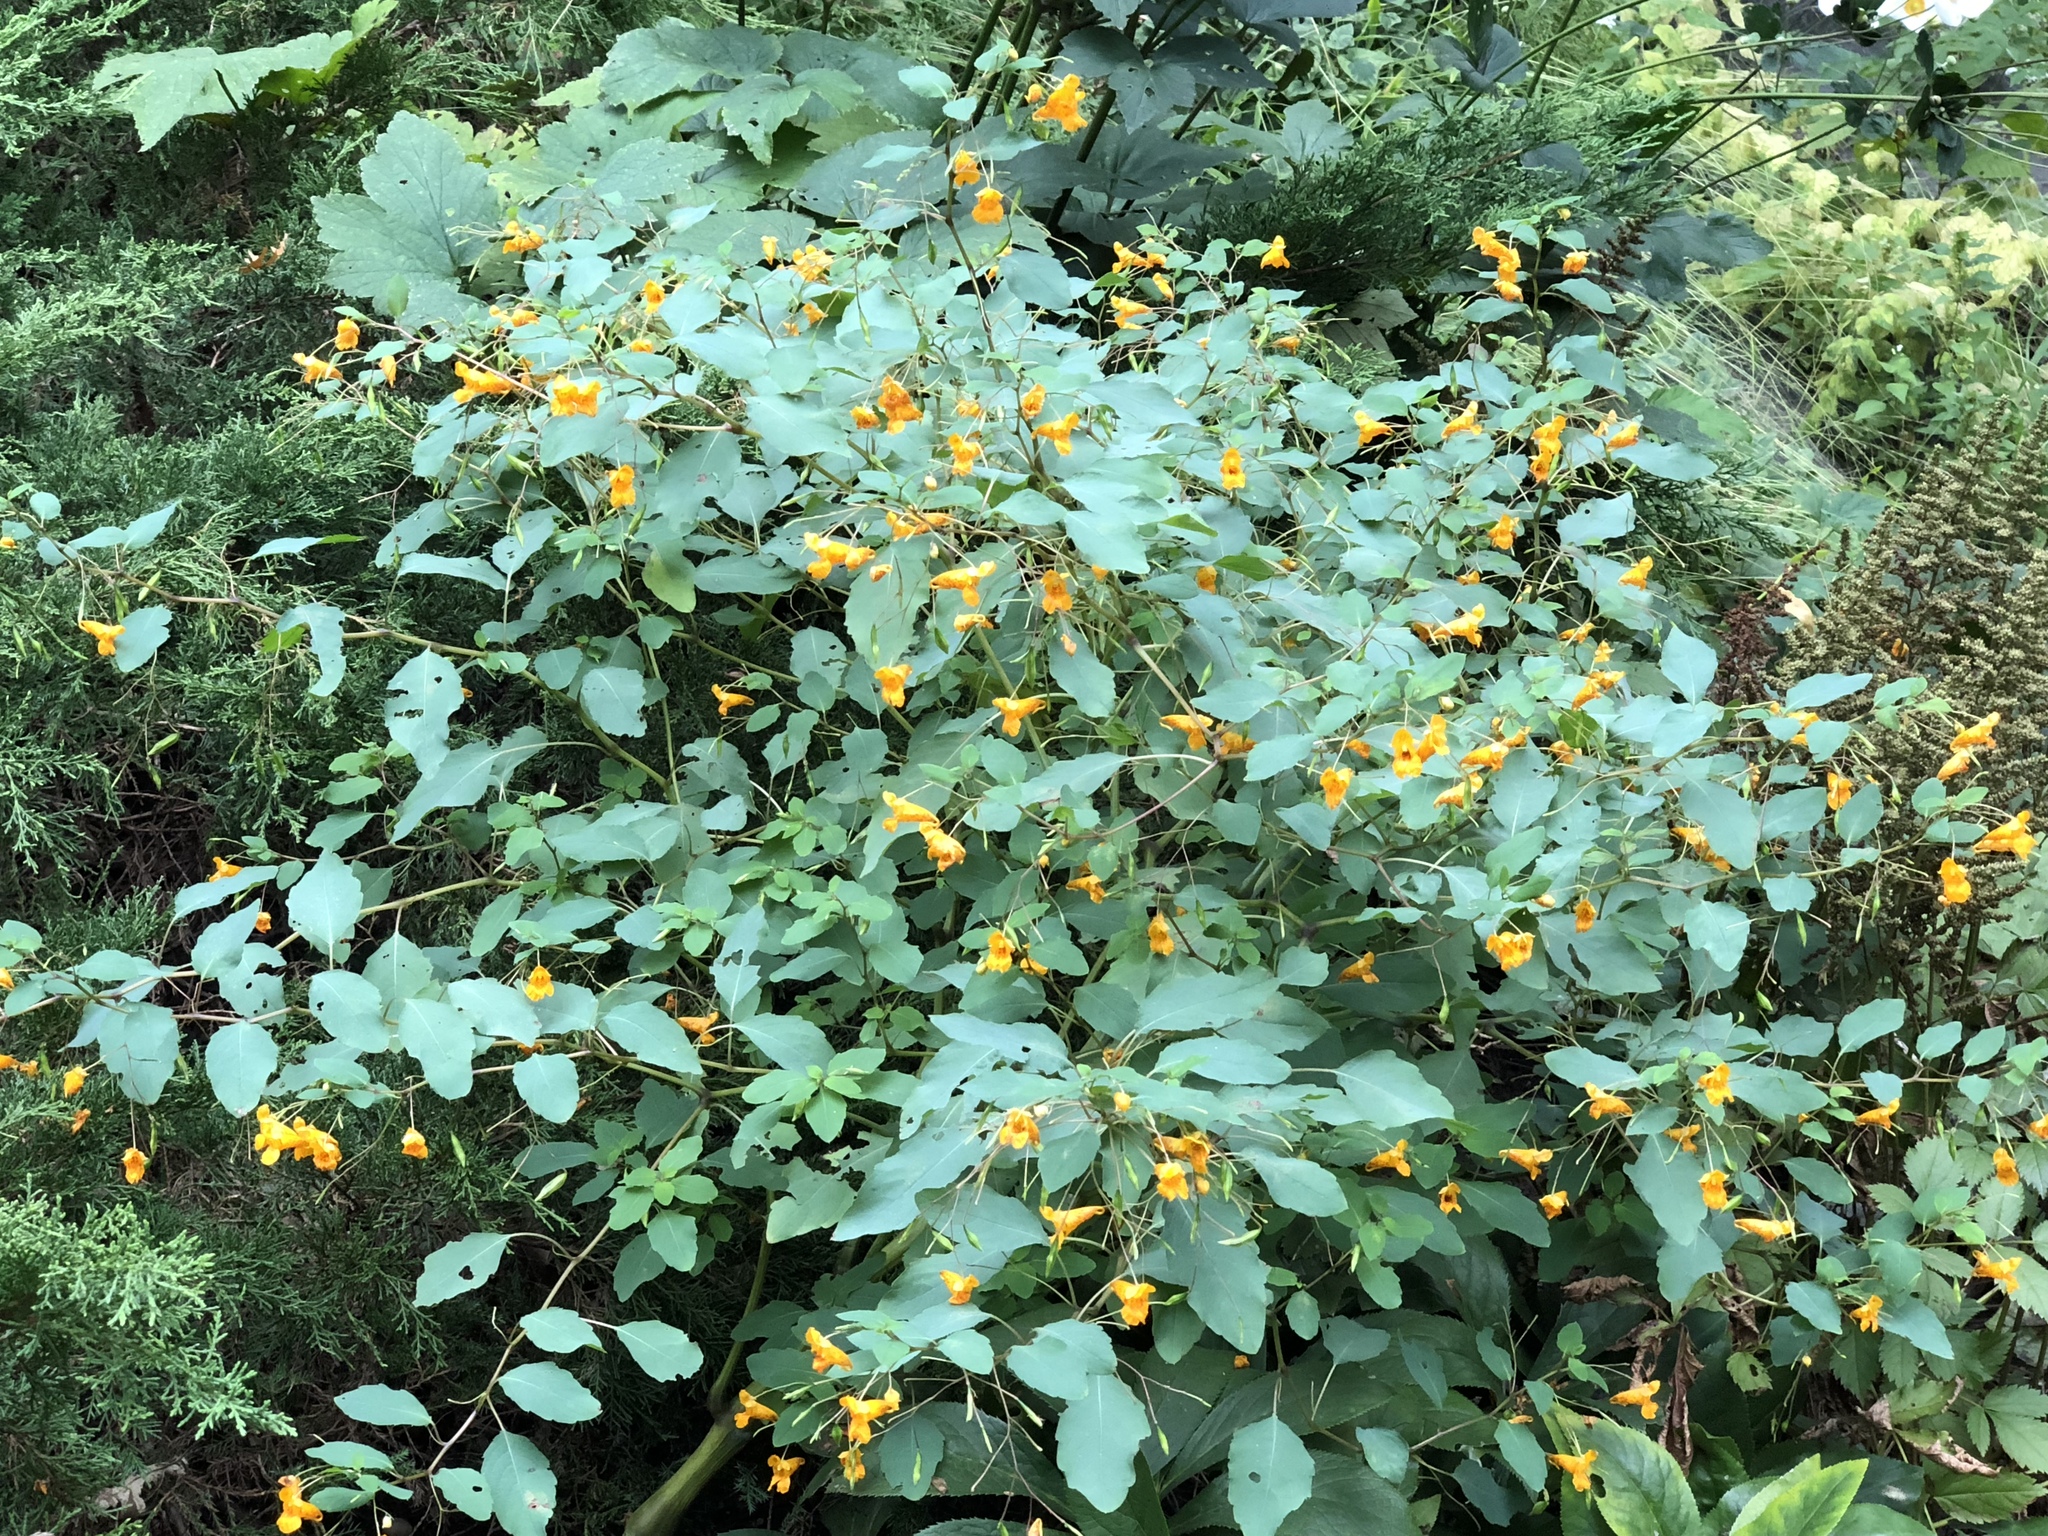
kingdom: Plantae
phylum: Tracheophyta
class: Magnoliopsida
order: Ericales
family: Balsaminaceae
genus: Impatiens
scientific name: Impatiens capensis
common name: Orange balsam
